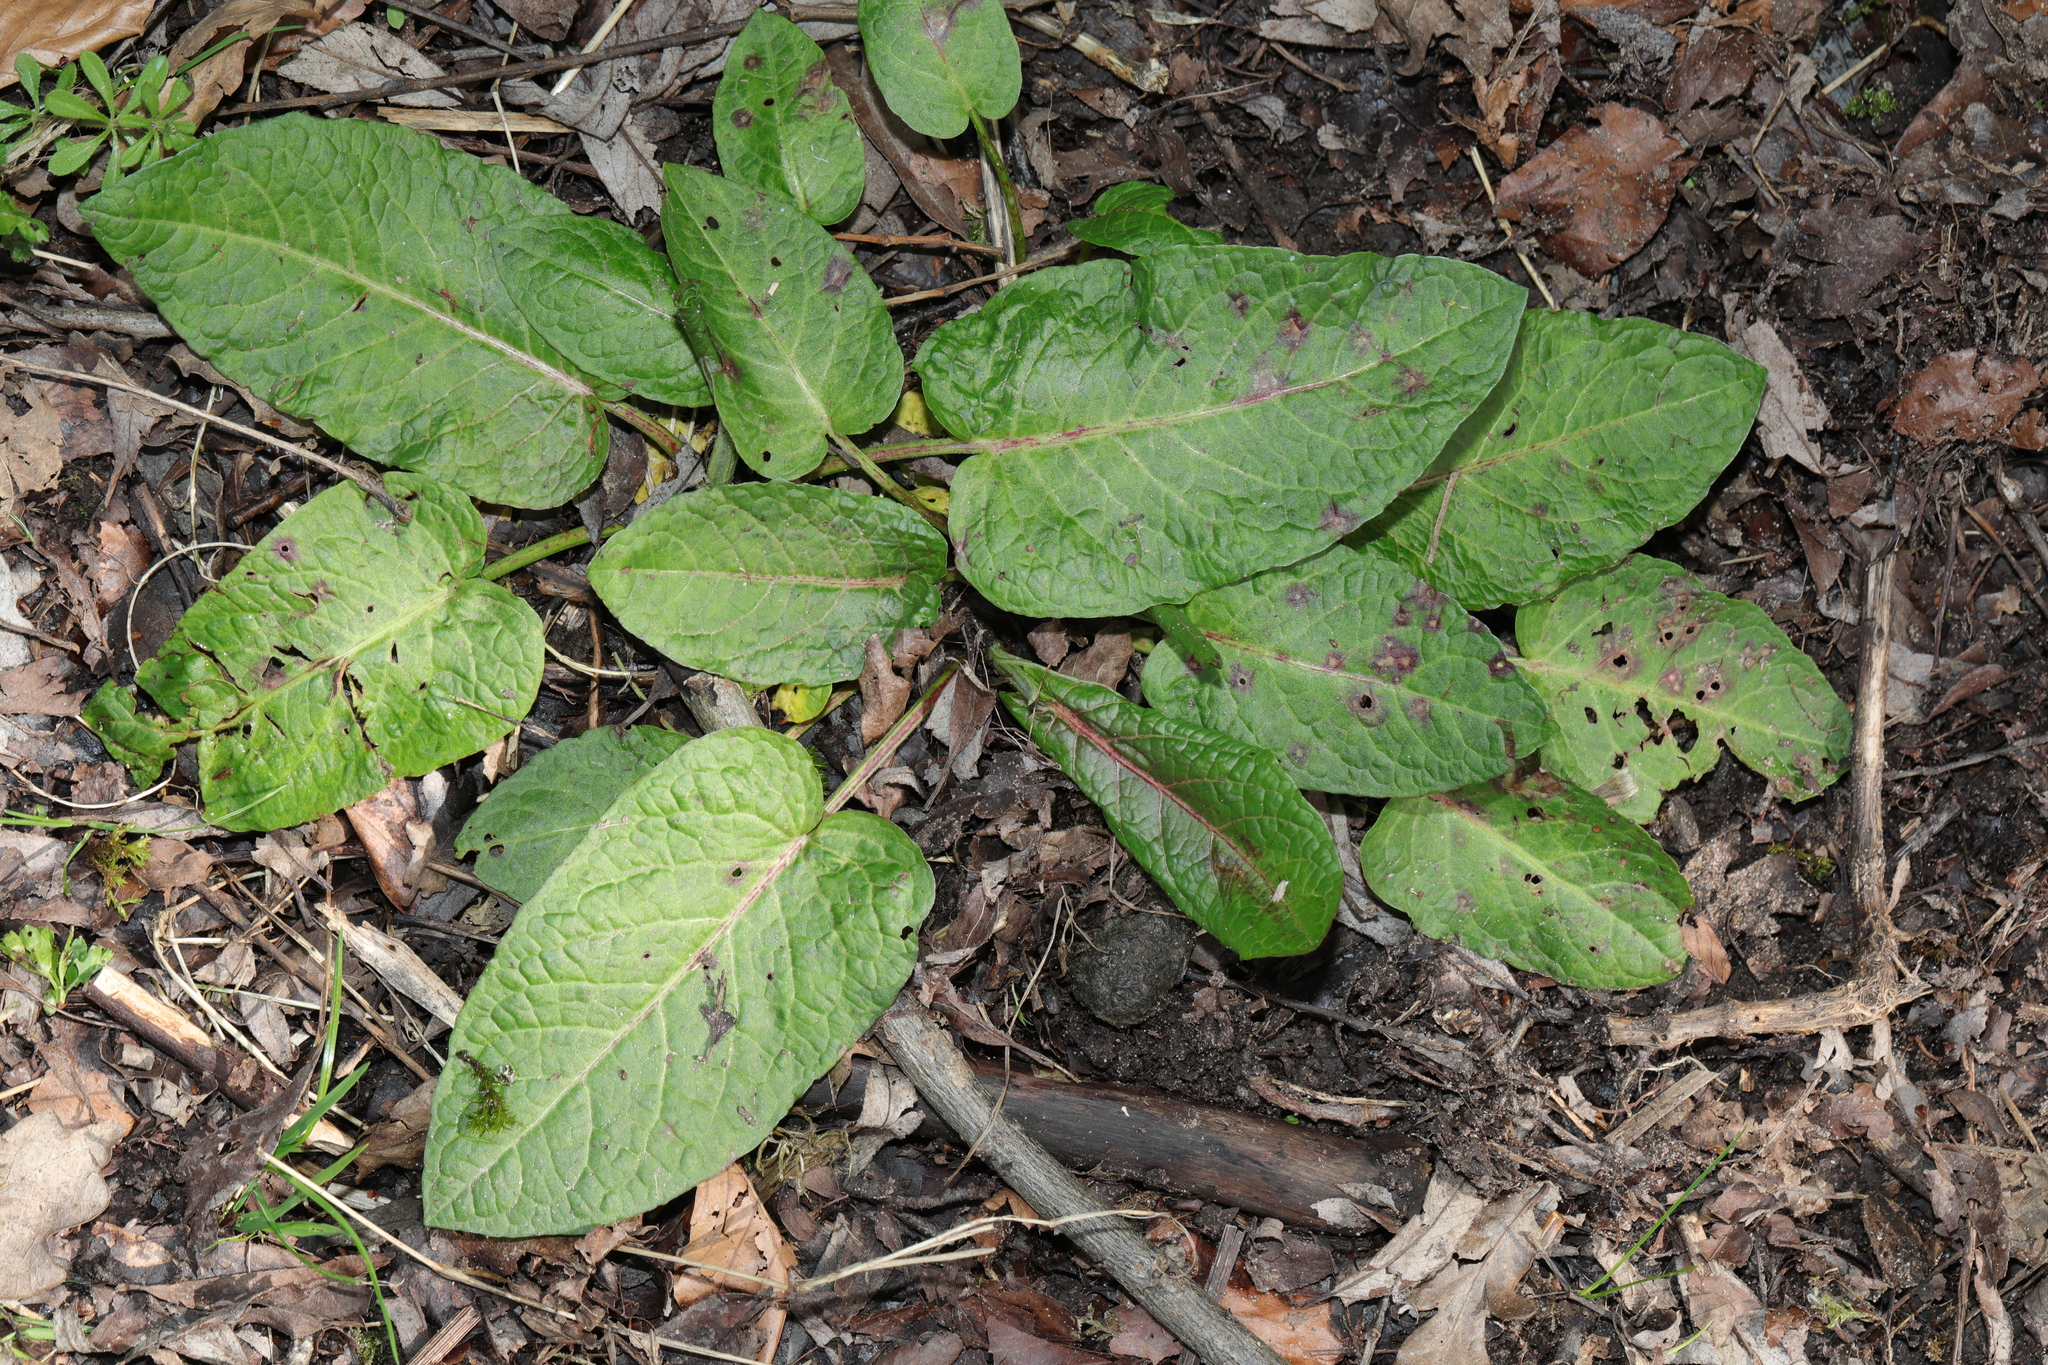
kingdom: Plantae
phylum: Tracheophyta
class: Magnoliopsida
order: Caryophyllales
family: Polygonaceae
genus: Rumex
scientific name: Rumex obtusifolius
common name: Bitter dock
